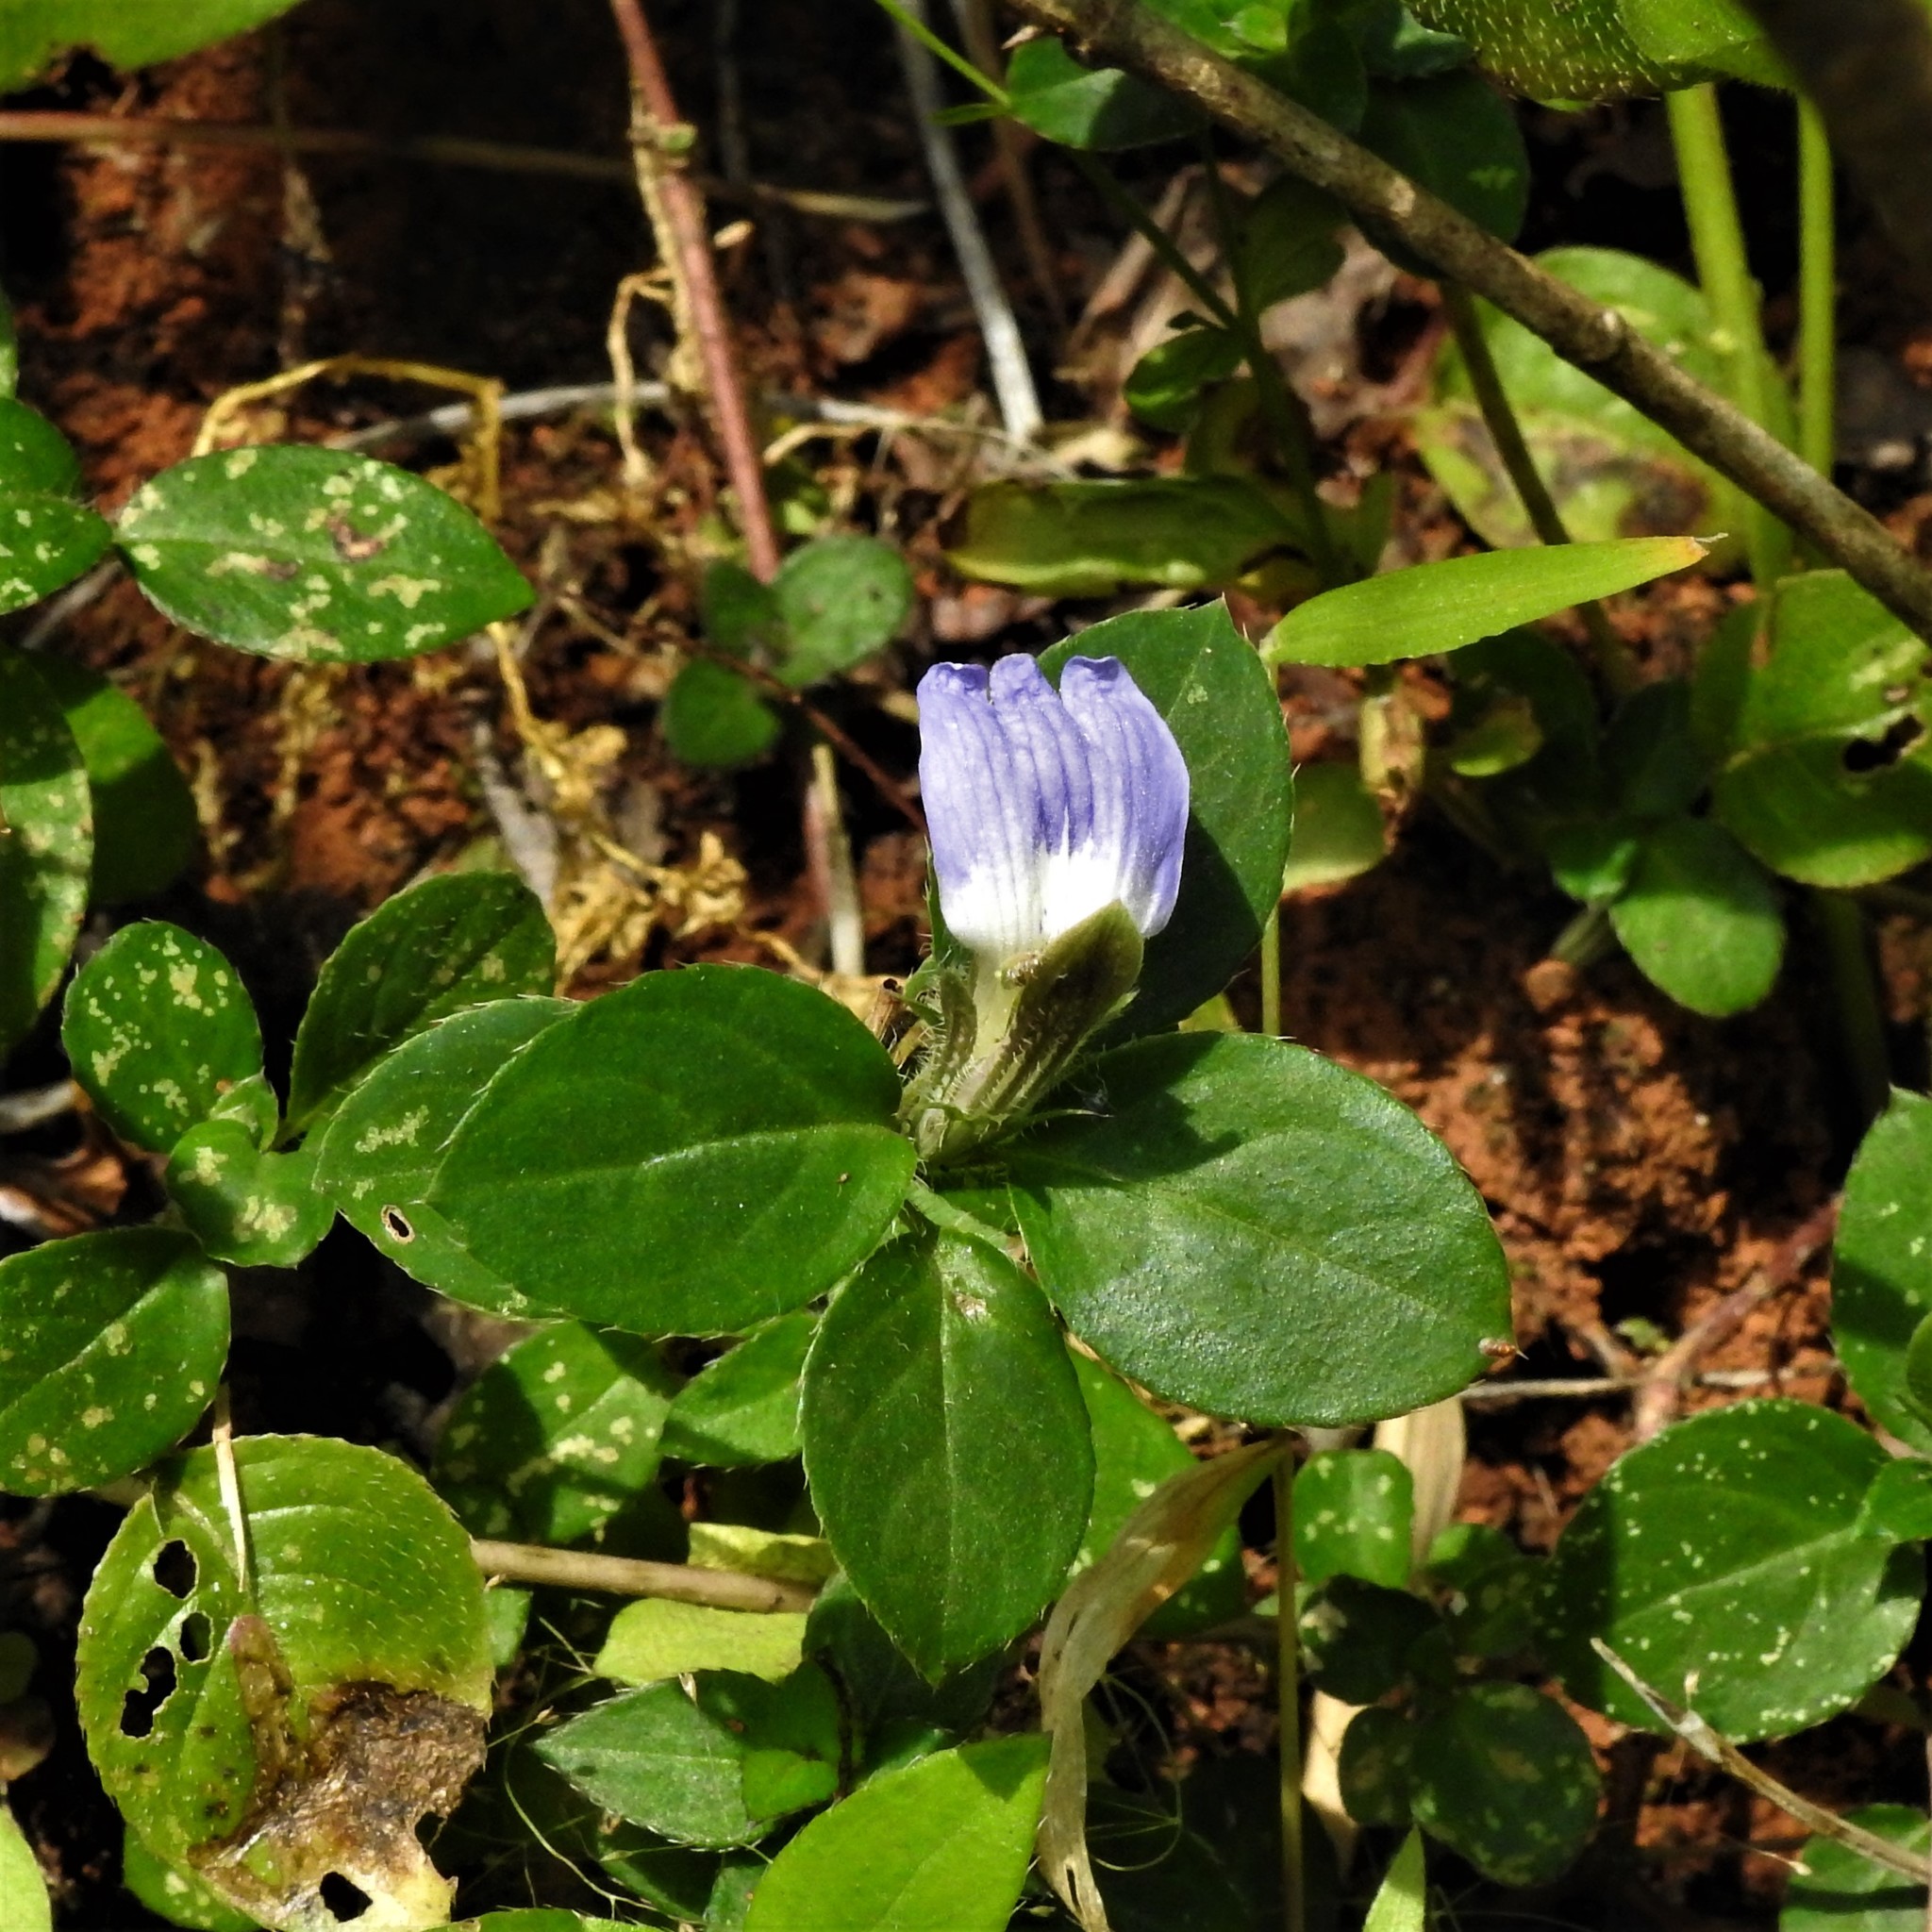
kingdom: Plantae
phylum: Tracheophyta
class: Magnoliopsida
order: Lamiales
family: Acanthaceae
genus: Cynarospermum
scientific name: Cynarospermum asperrimum
